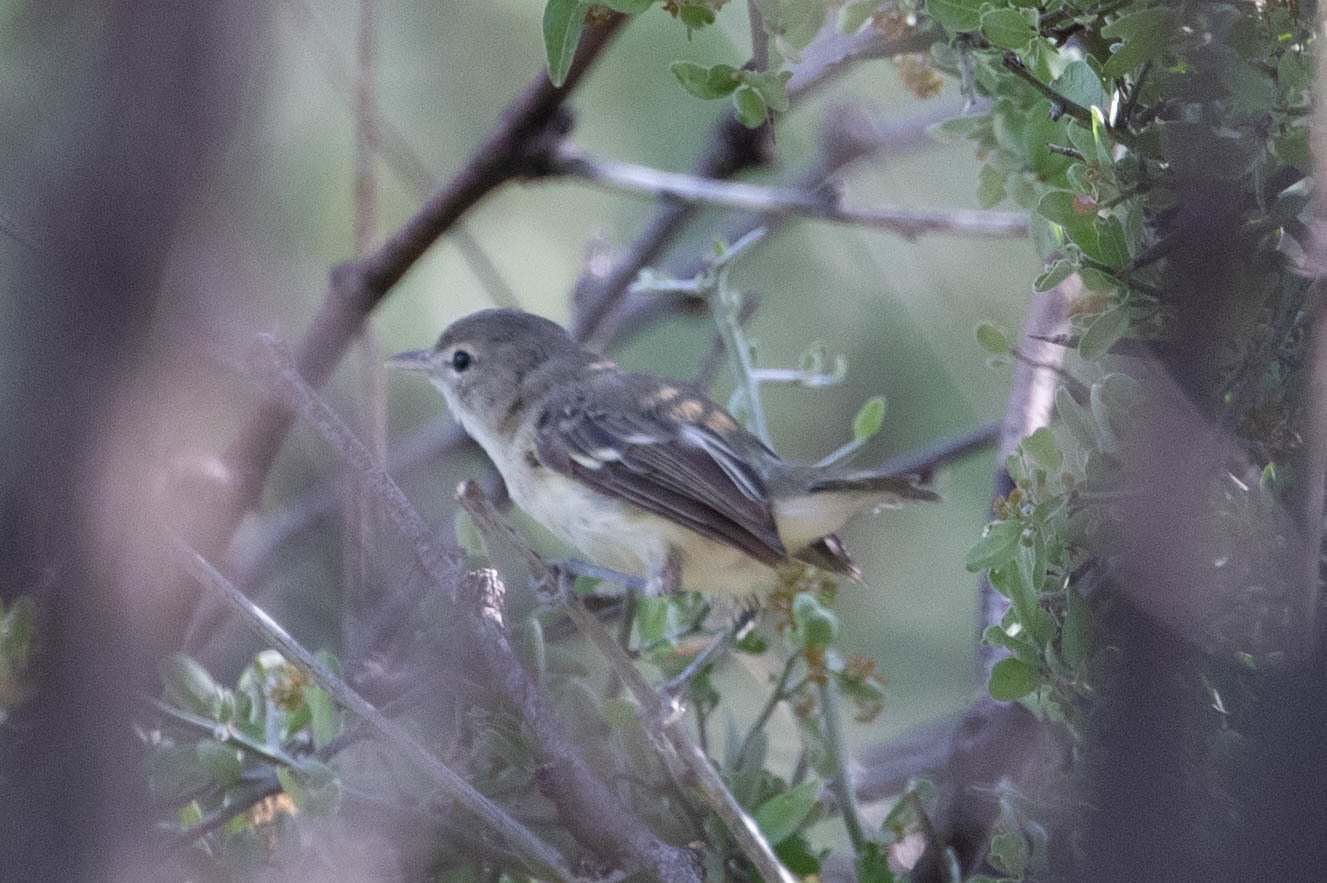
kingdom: Animalia
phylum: Chordata
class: Aves
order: Passeriformes
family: Vireonidae
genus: Vireo
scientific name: Vireo bellii
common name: Bell's vireo
